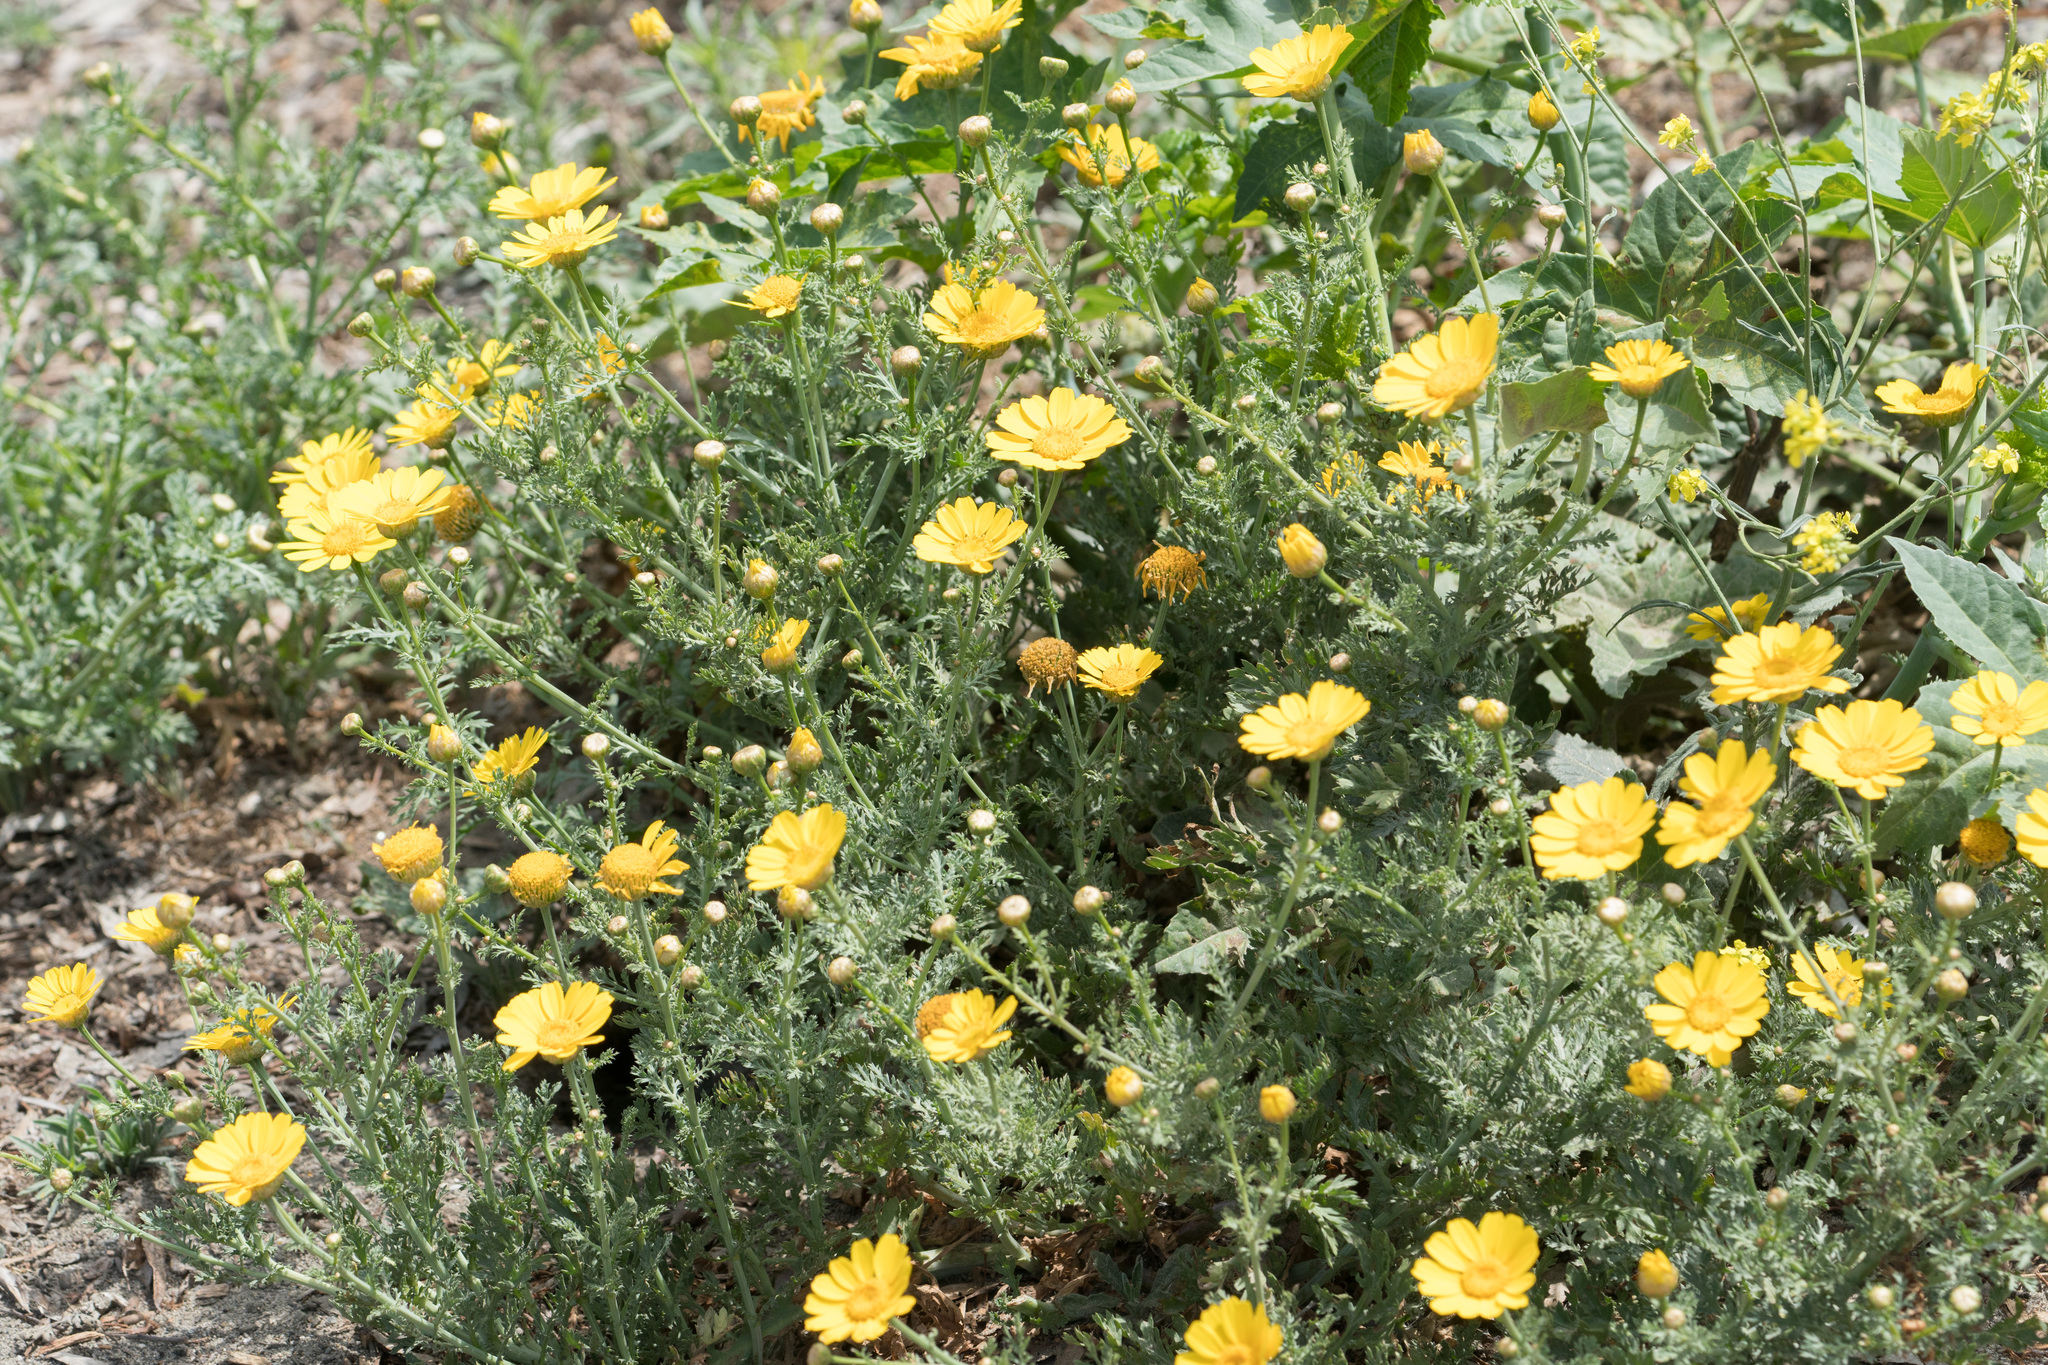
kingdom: Plantae
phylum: Tracheophyta
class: Magnoliopsida
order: Asterales
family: Asteraceae
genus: Glebionis
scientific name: Glebionis coronaria
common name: Crowndaisy
